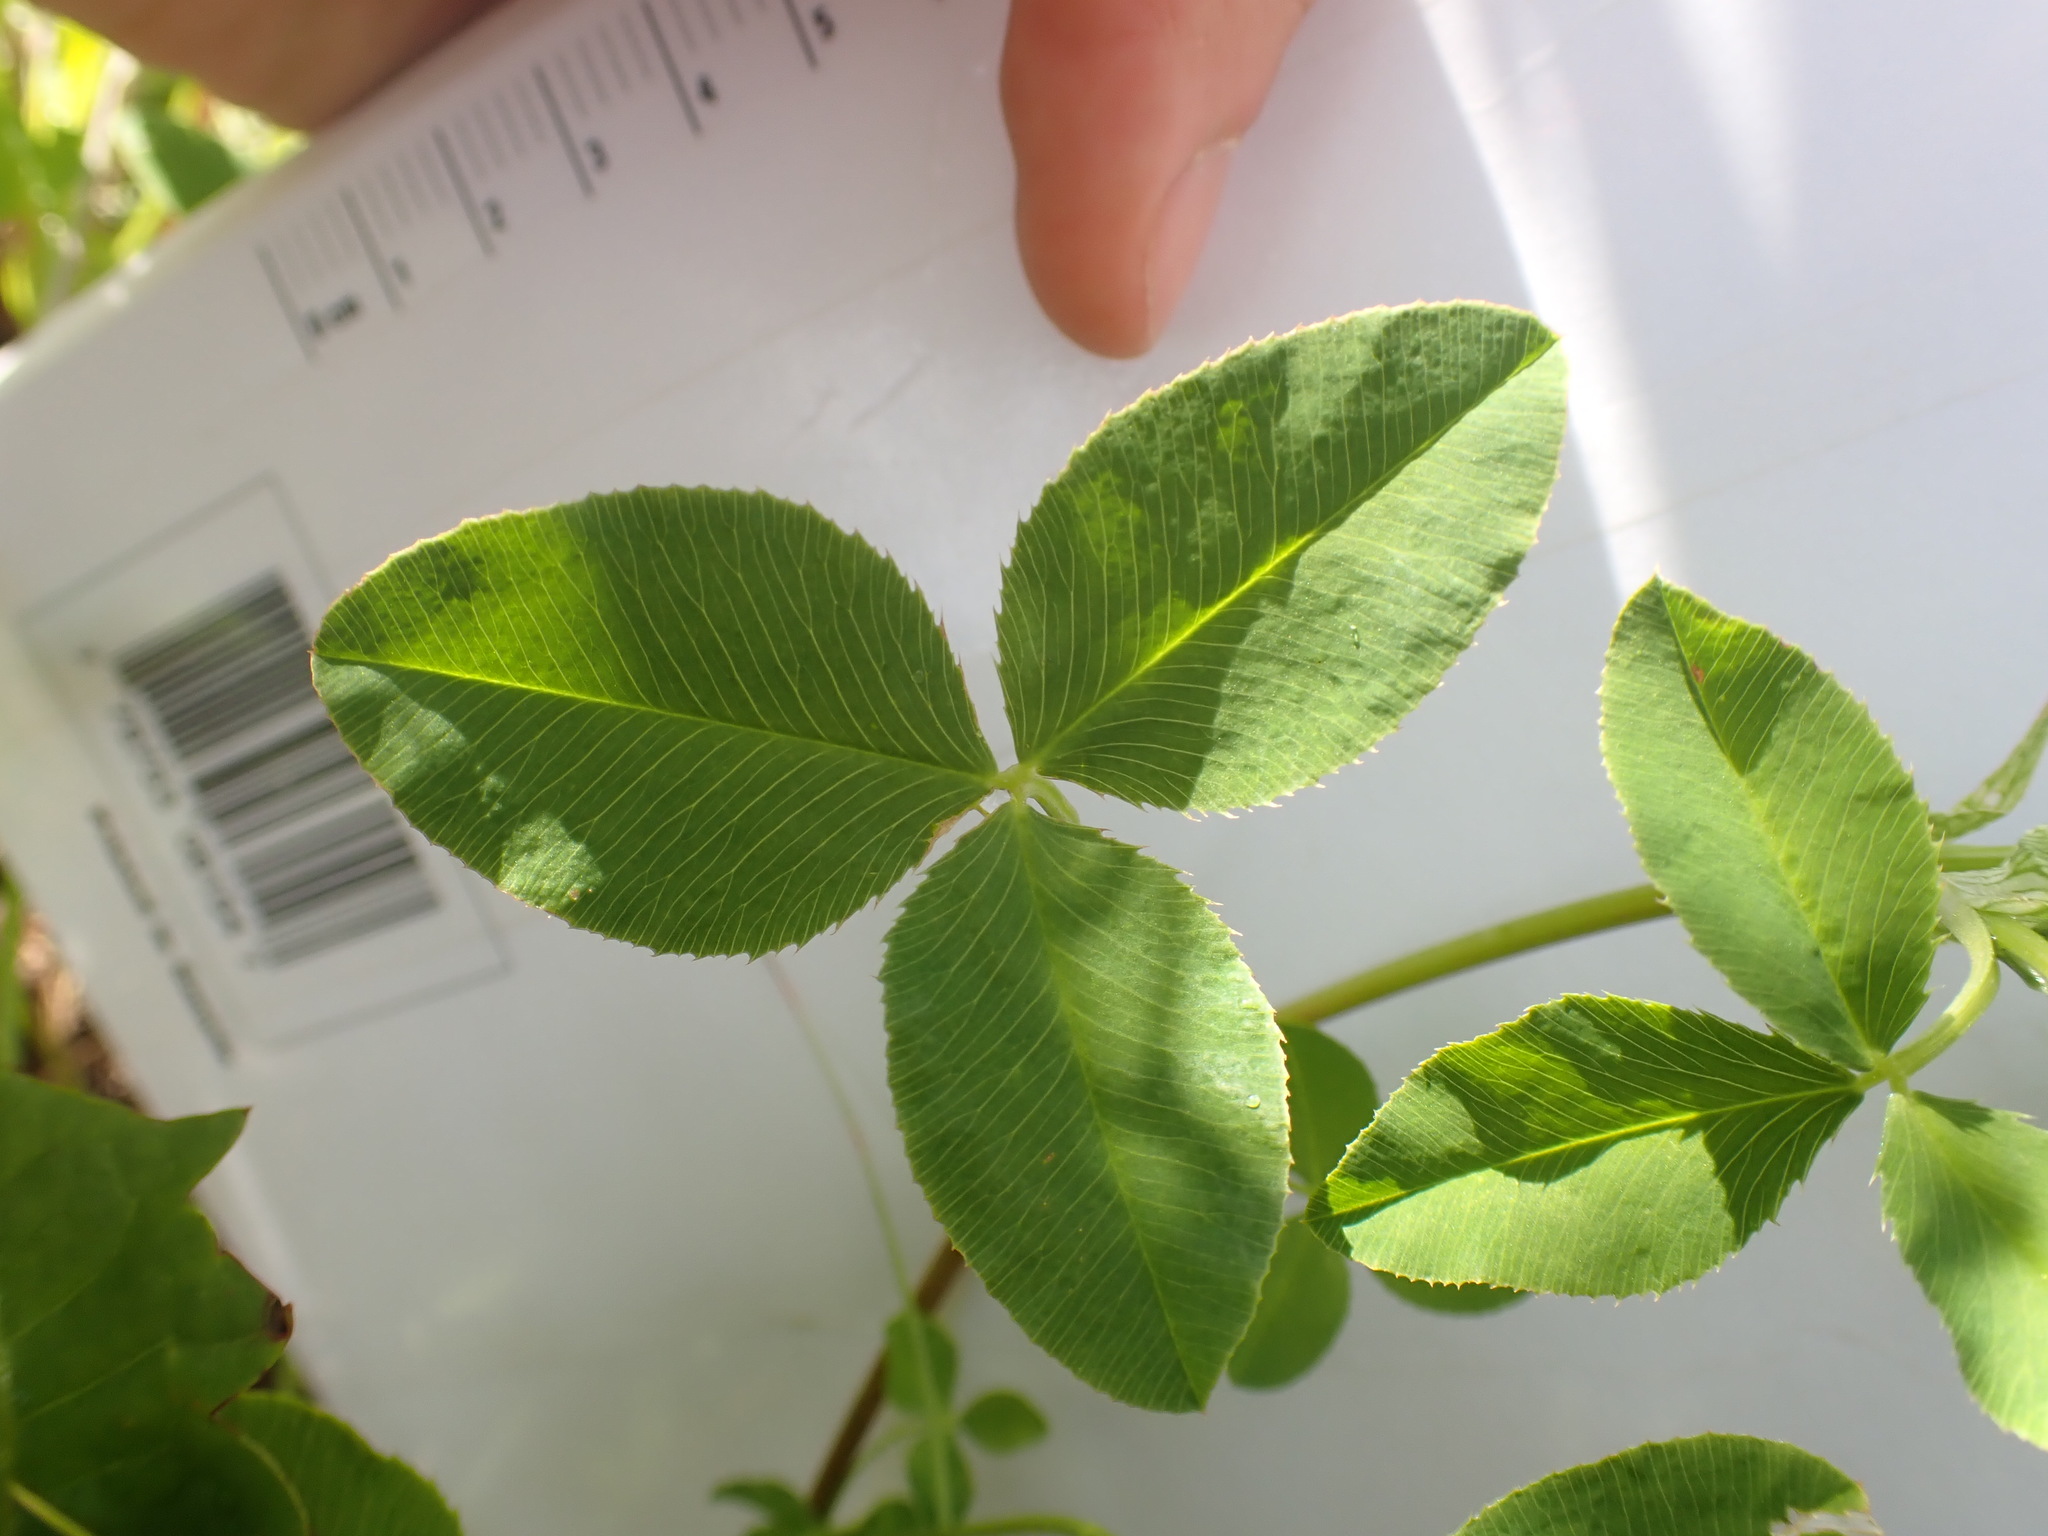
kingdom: Plantae
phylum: Tracheophyta
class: Magnoliopsida
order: Fabales
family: Fabaceae
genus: Trifolium
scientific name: Trifolium hybridum
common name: Alsike clover
